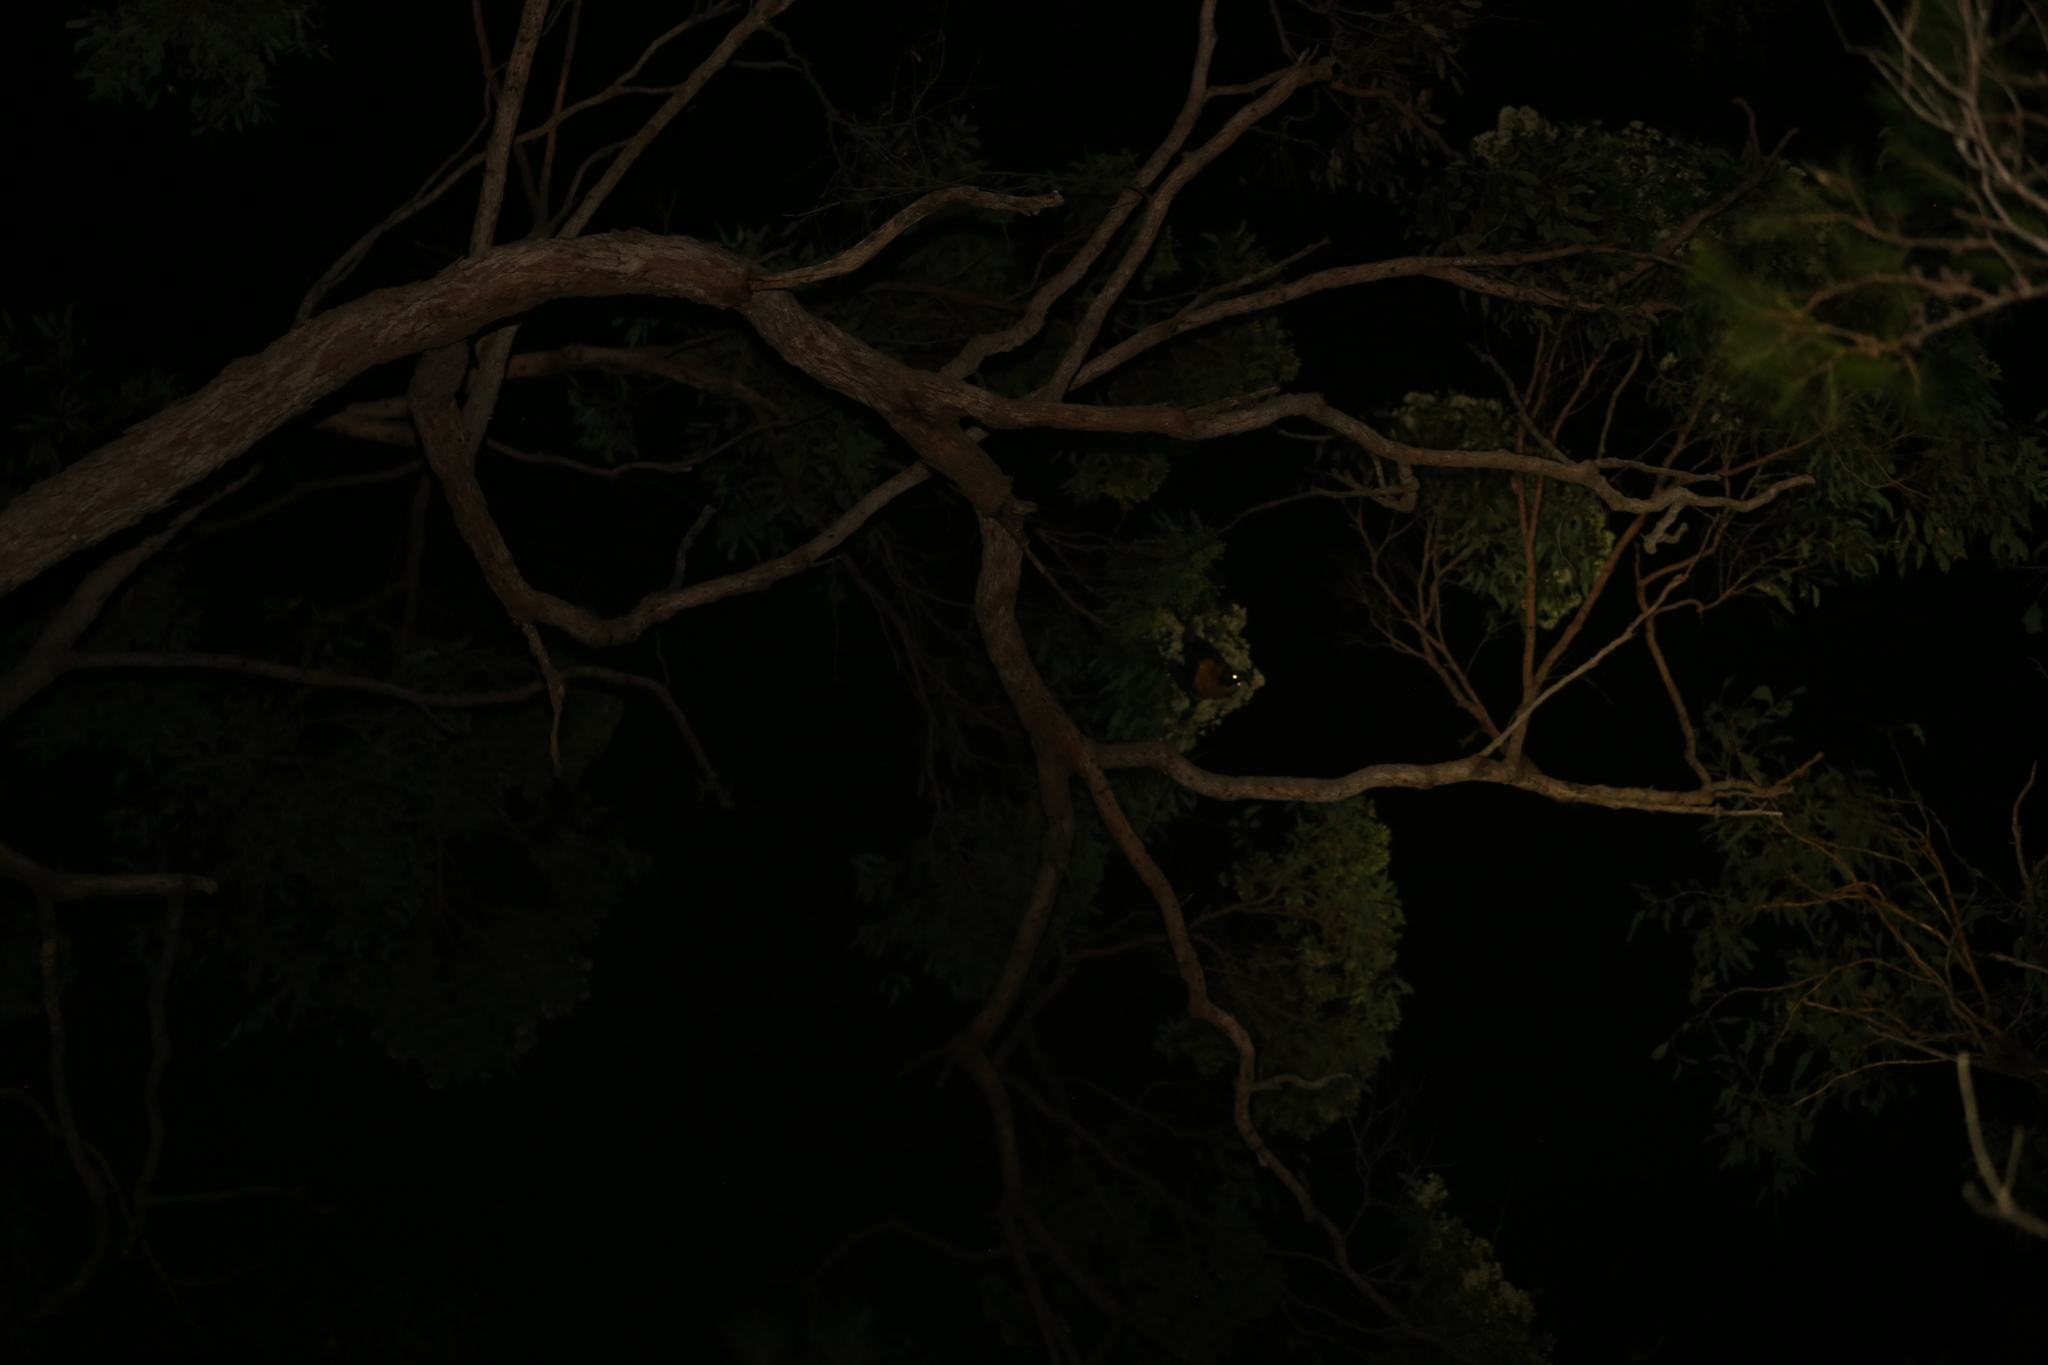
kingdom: Animalia
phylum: Chordata
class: Mammalia
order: Chiroptera
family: Pteropodidae
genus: Pteropus
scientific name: Pteropus poliocephalus
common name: Gray-headed flying fox
